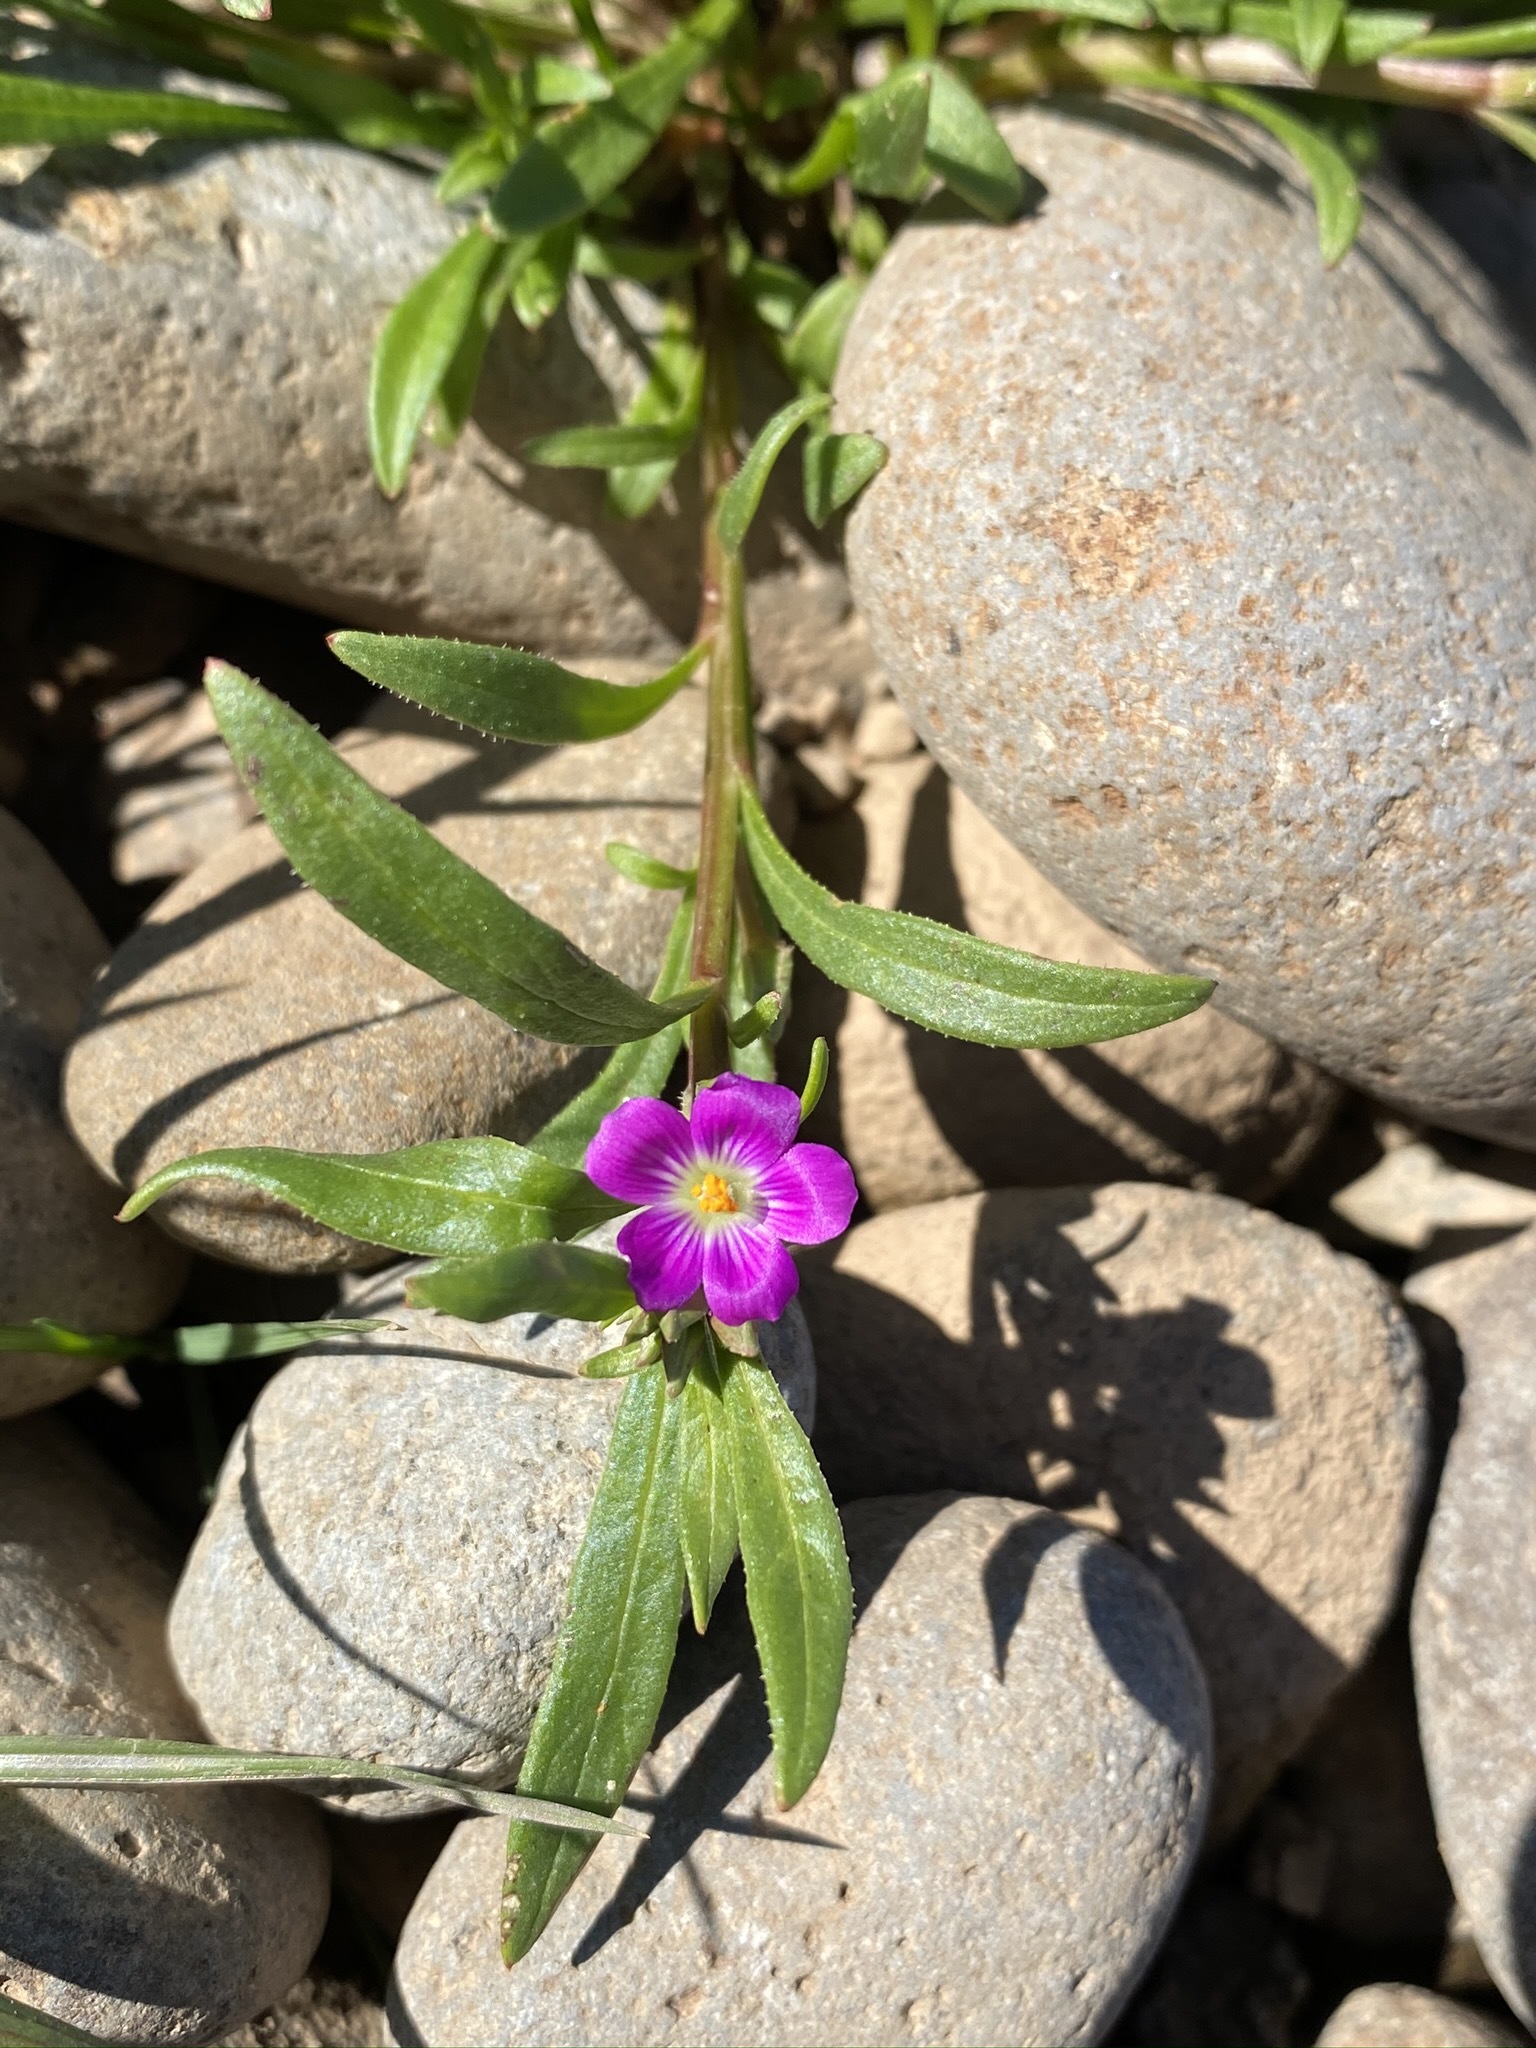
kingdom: Plantae
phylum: Tracheophyta
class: Magnoliopsida
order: Caryophyllales
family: Montiaceae
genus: Calandrinia
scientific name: Calandrinia menziesii
